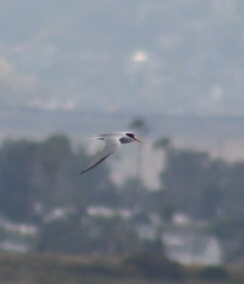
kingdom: Animalia
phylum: Chordata
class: Aves
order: Charadriiformes
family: Laridae
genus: Sternula
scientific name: Sternula antillarum
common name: Least tern
